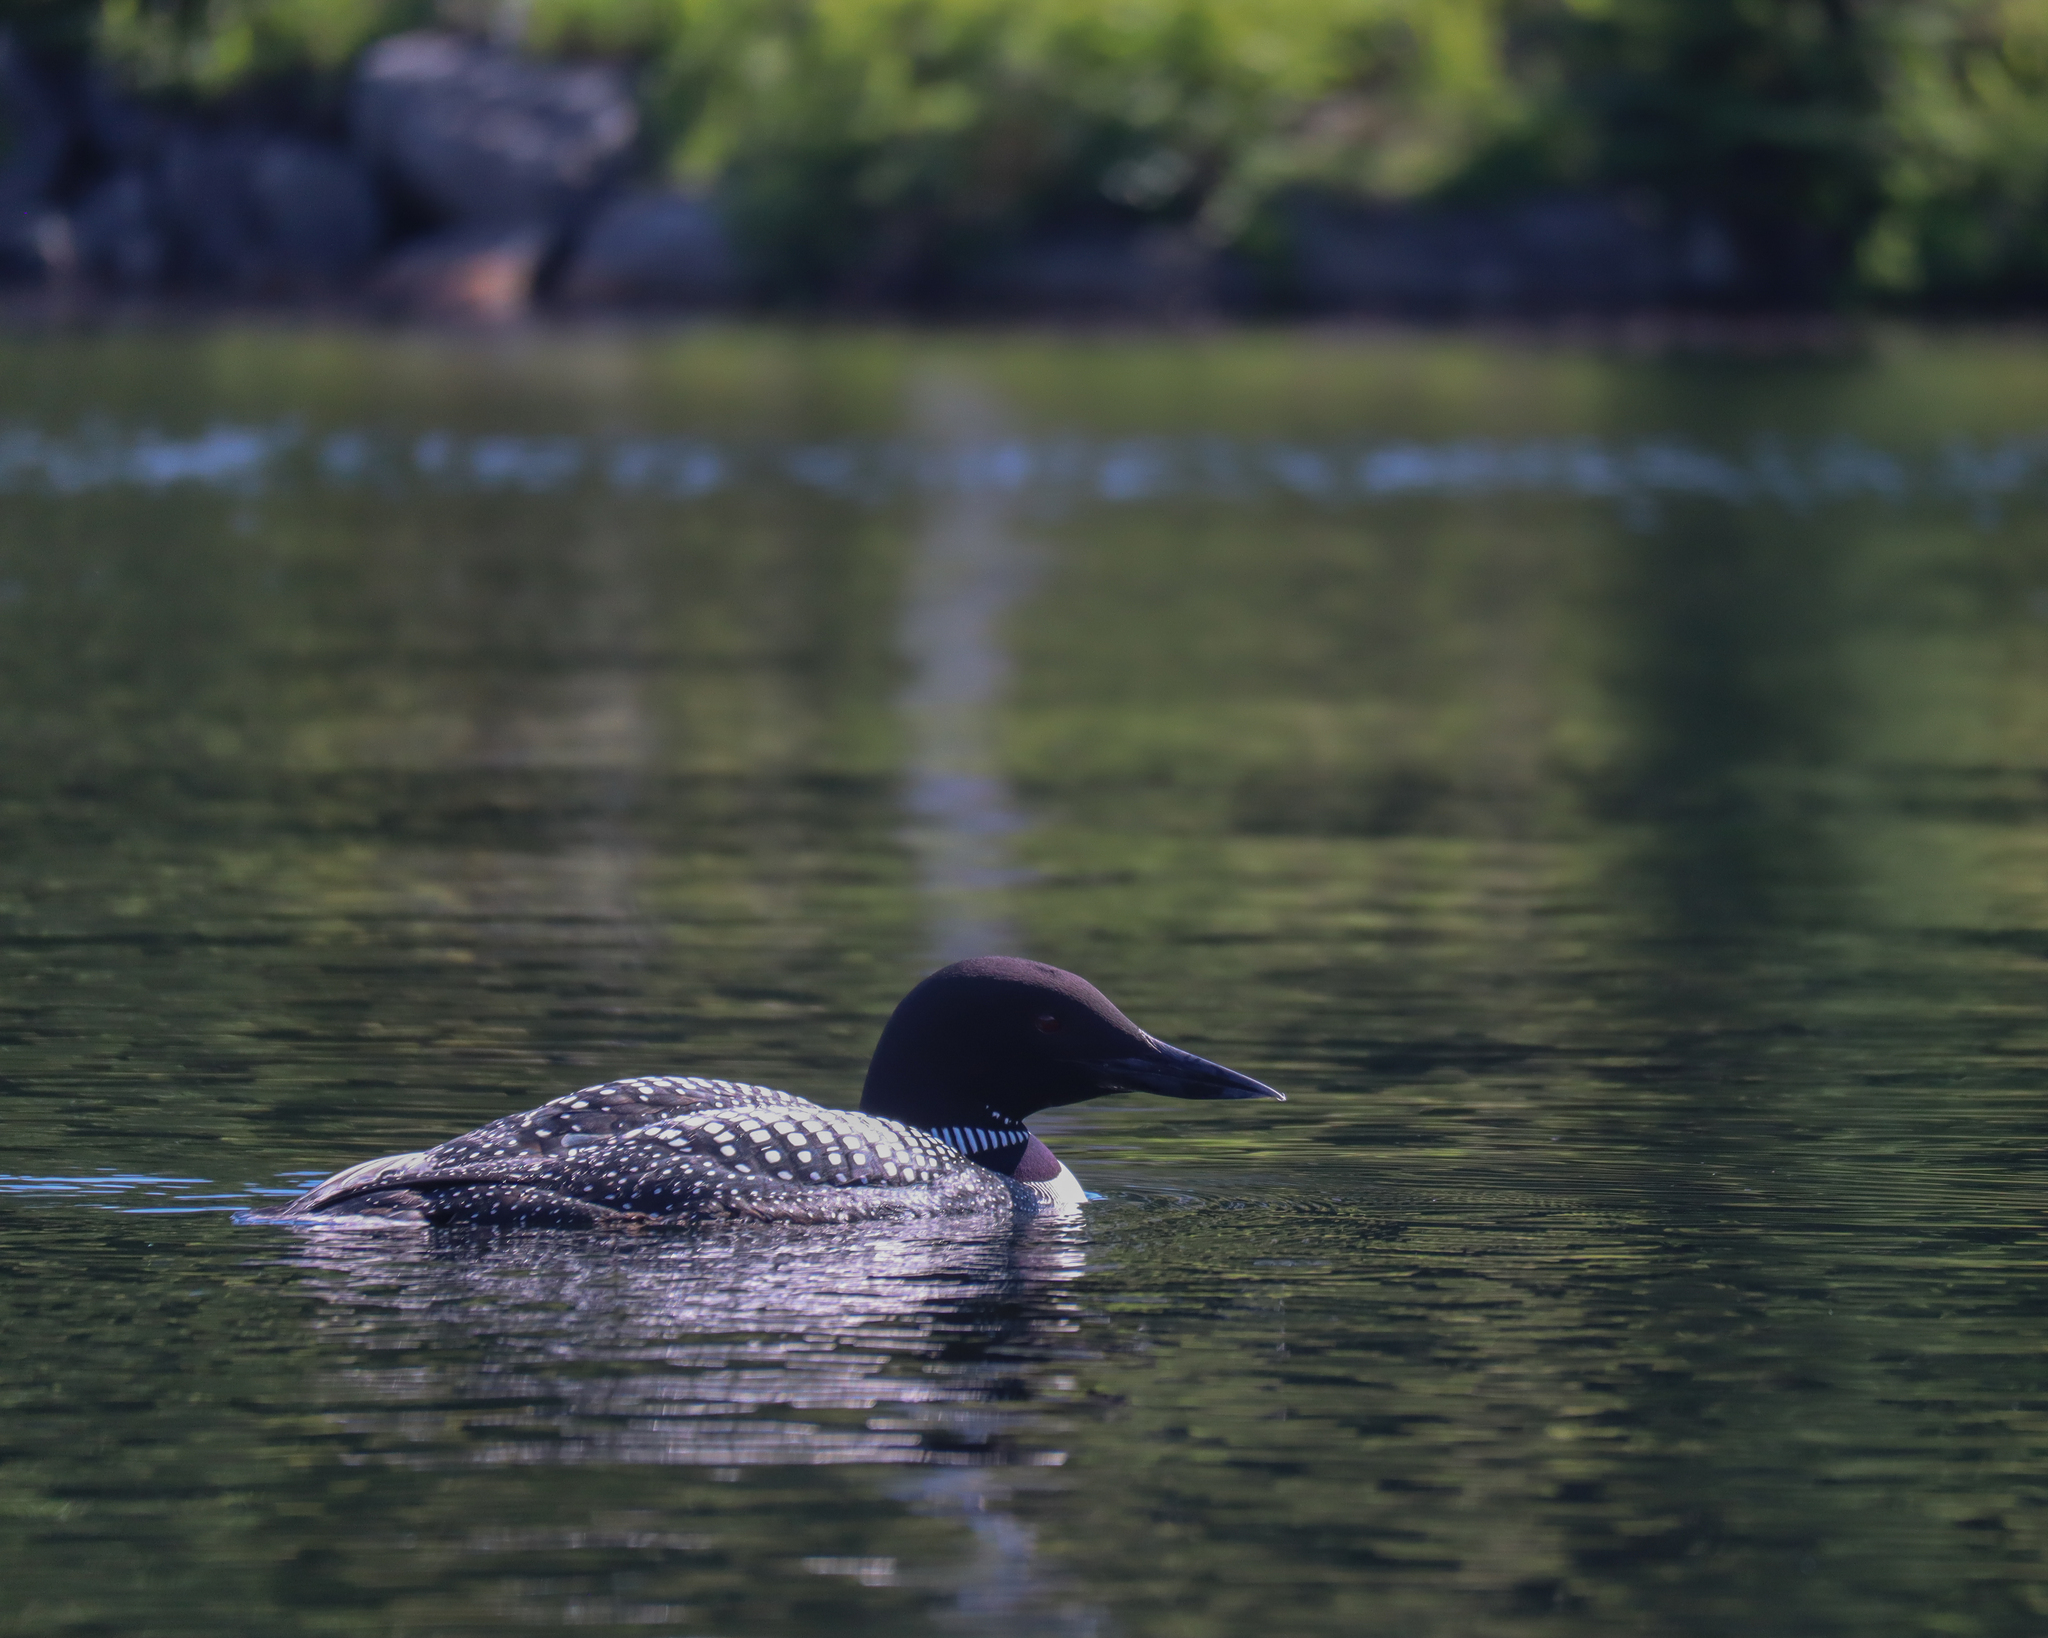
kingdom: Animalia
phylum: Chordata
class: Aves
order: Gaviiformes
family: Gaviidae
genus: Gavia
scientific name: Gavia immer
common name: Common loon
